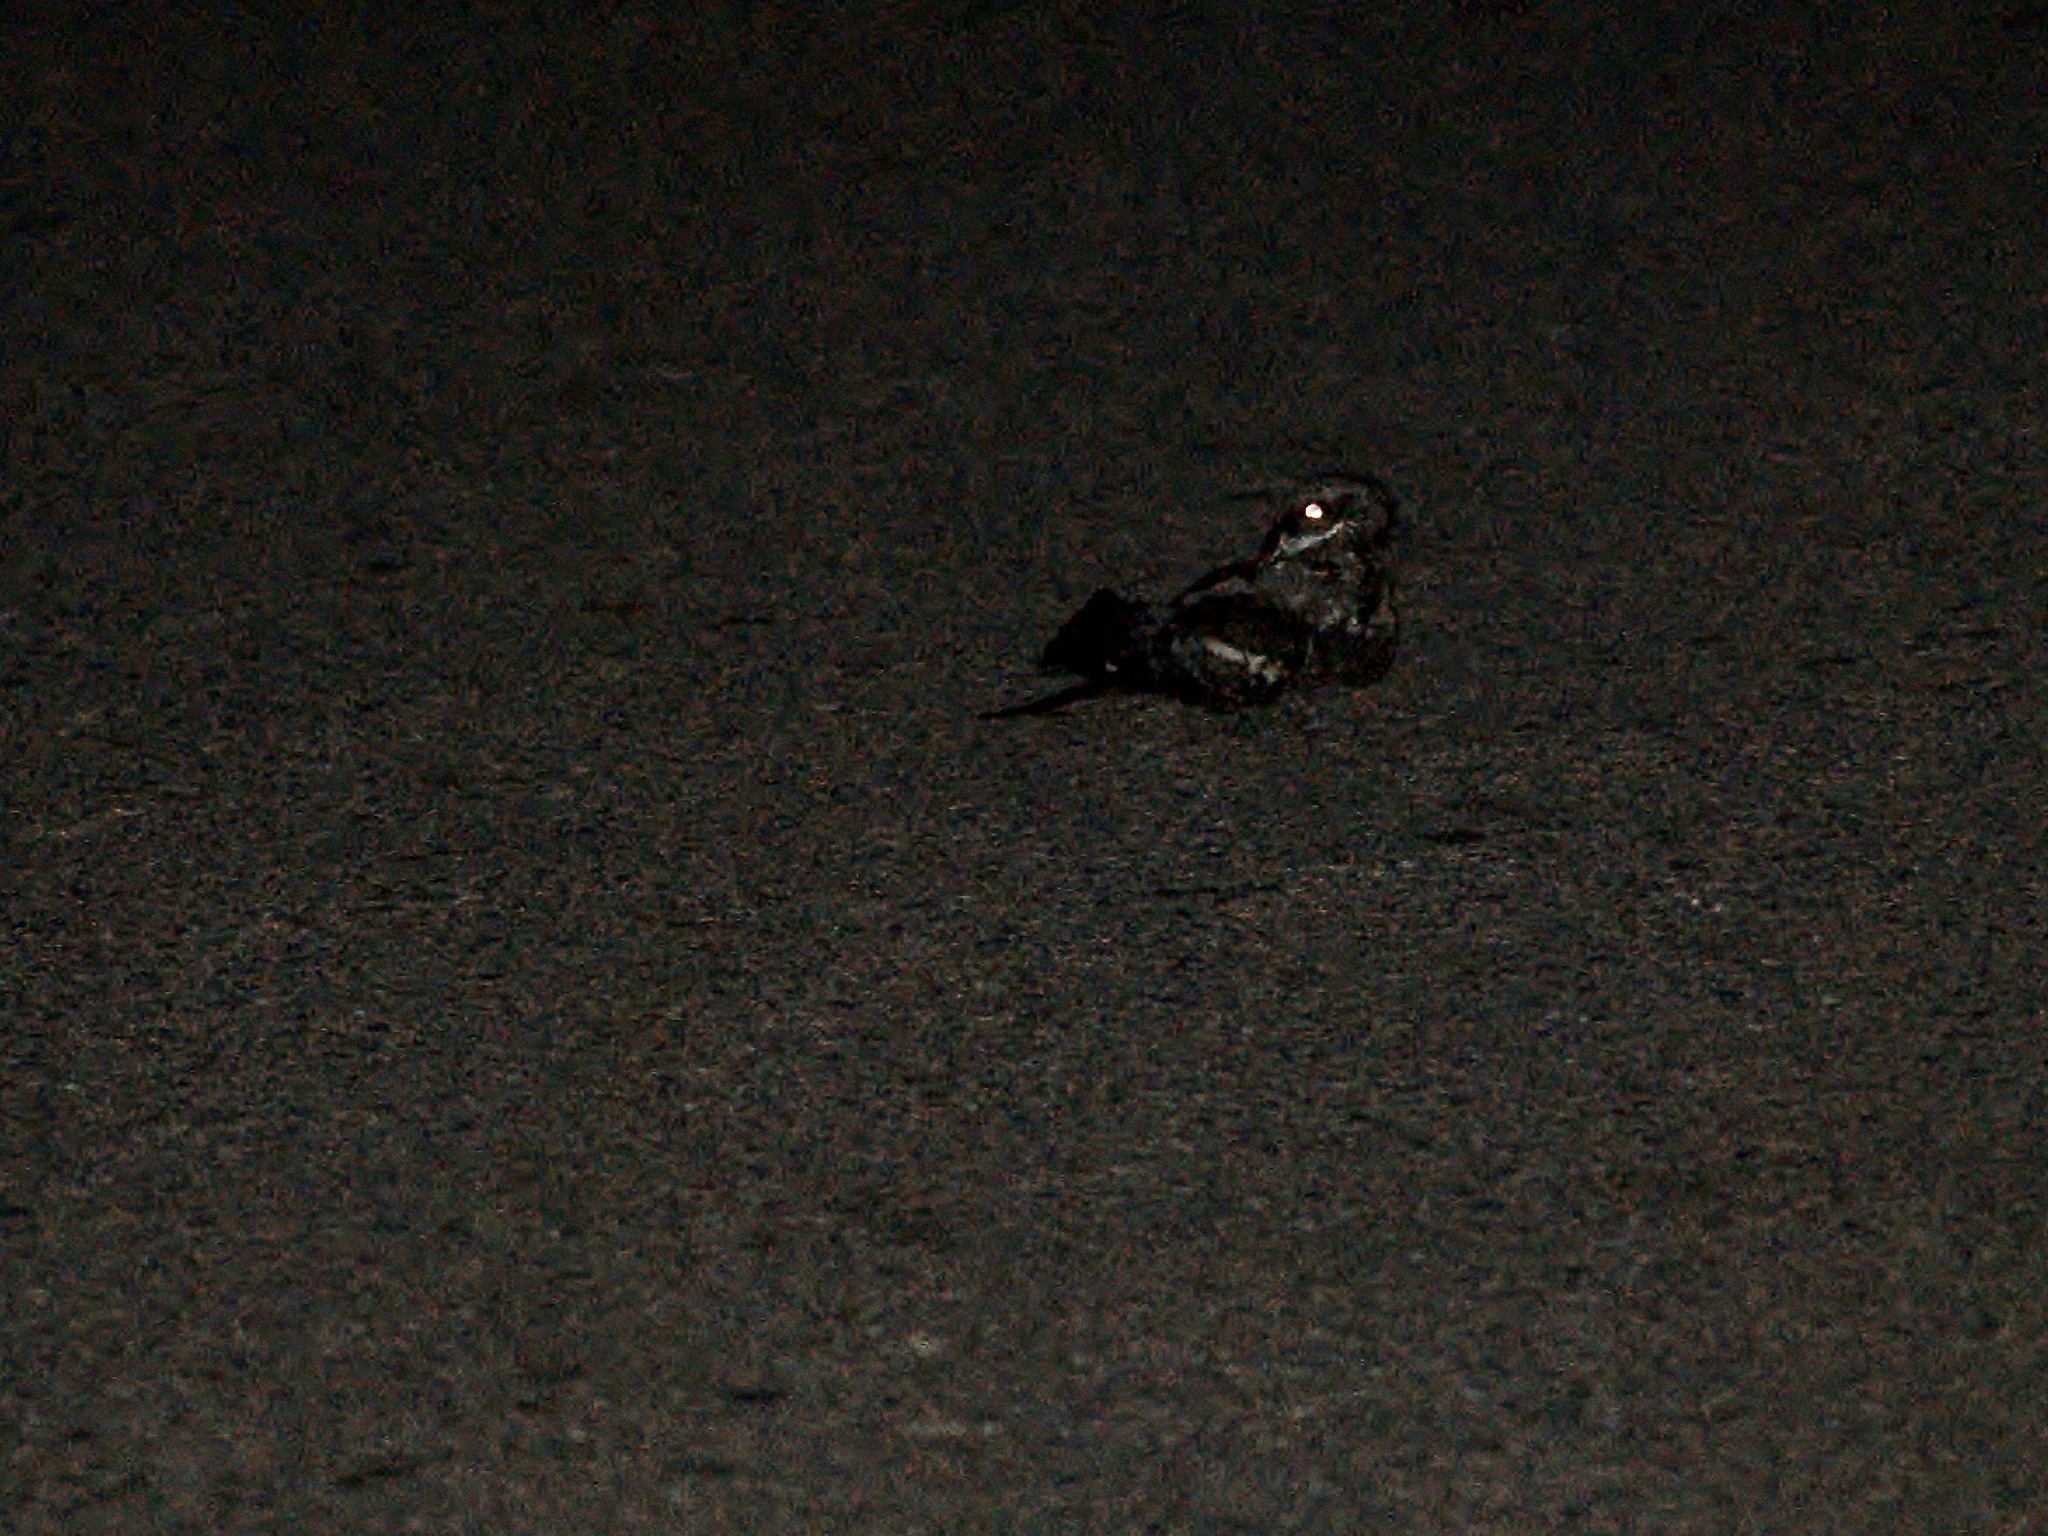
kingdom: Animalia
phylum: Chordata
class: Aves
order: Caprimulgiformes
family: Caprimulgidae
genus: Caprimulgus
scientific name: Caprimulgus europaeus
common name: European nightjar
